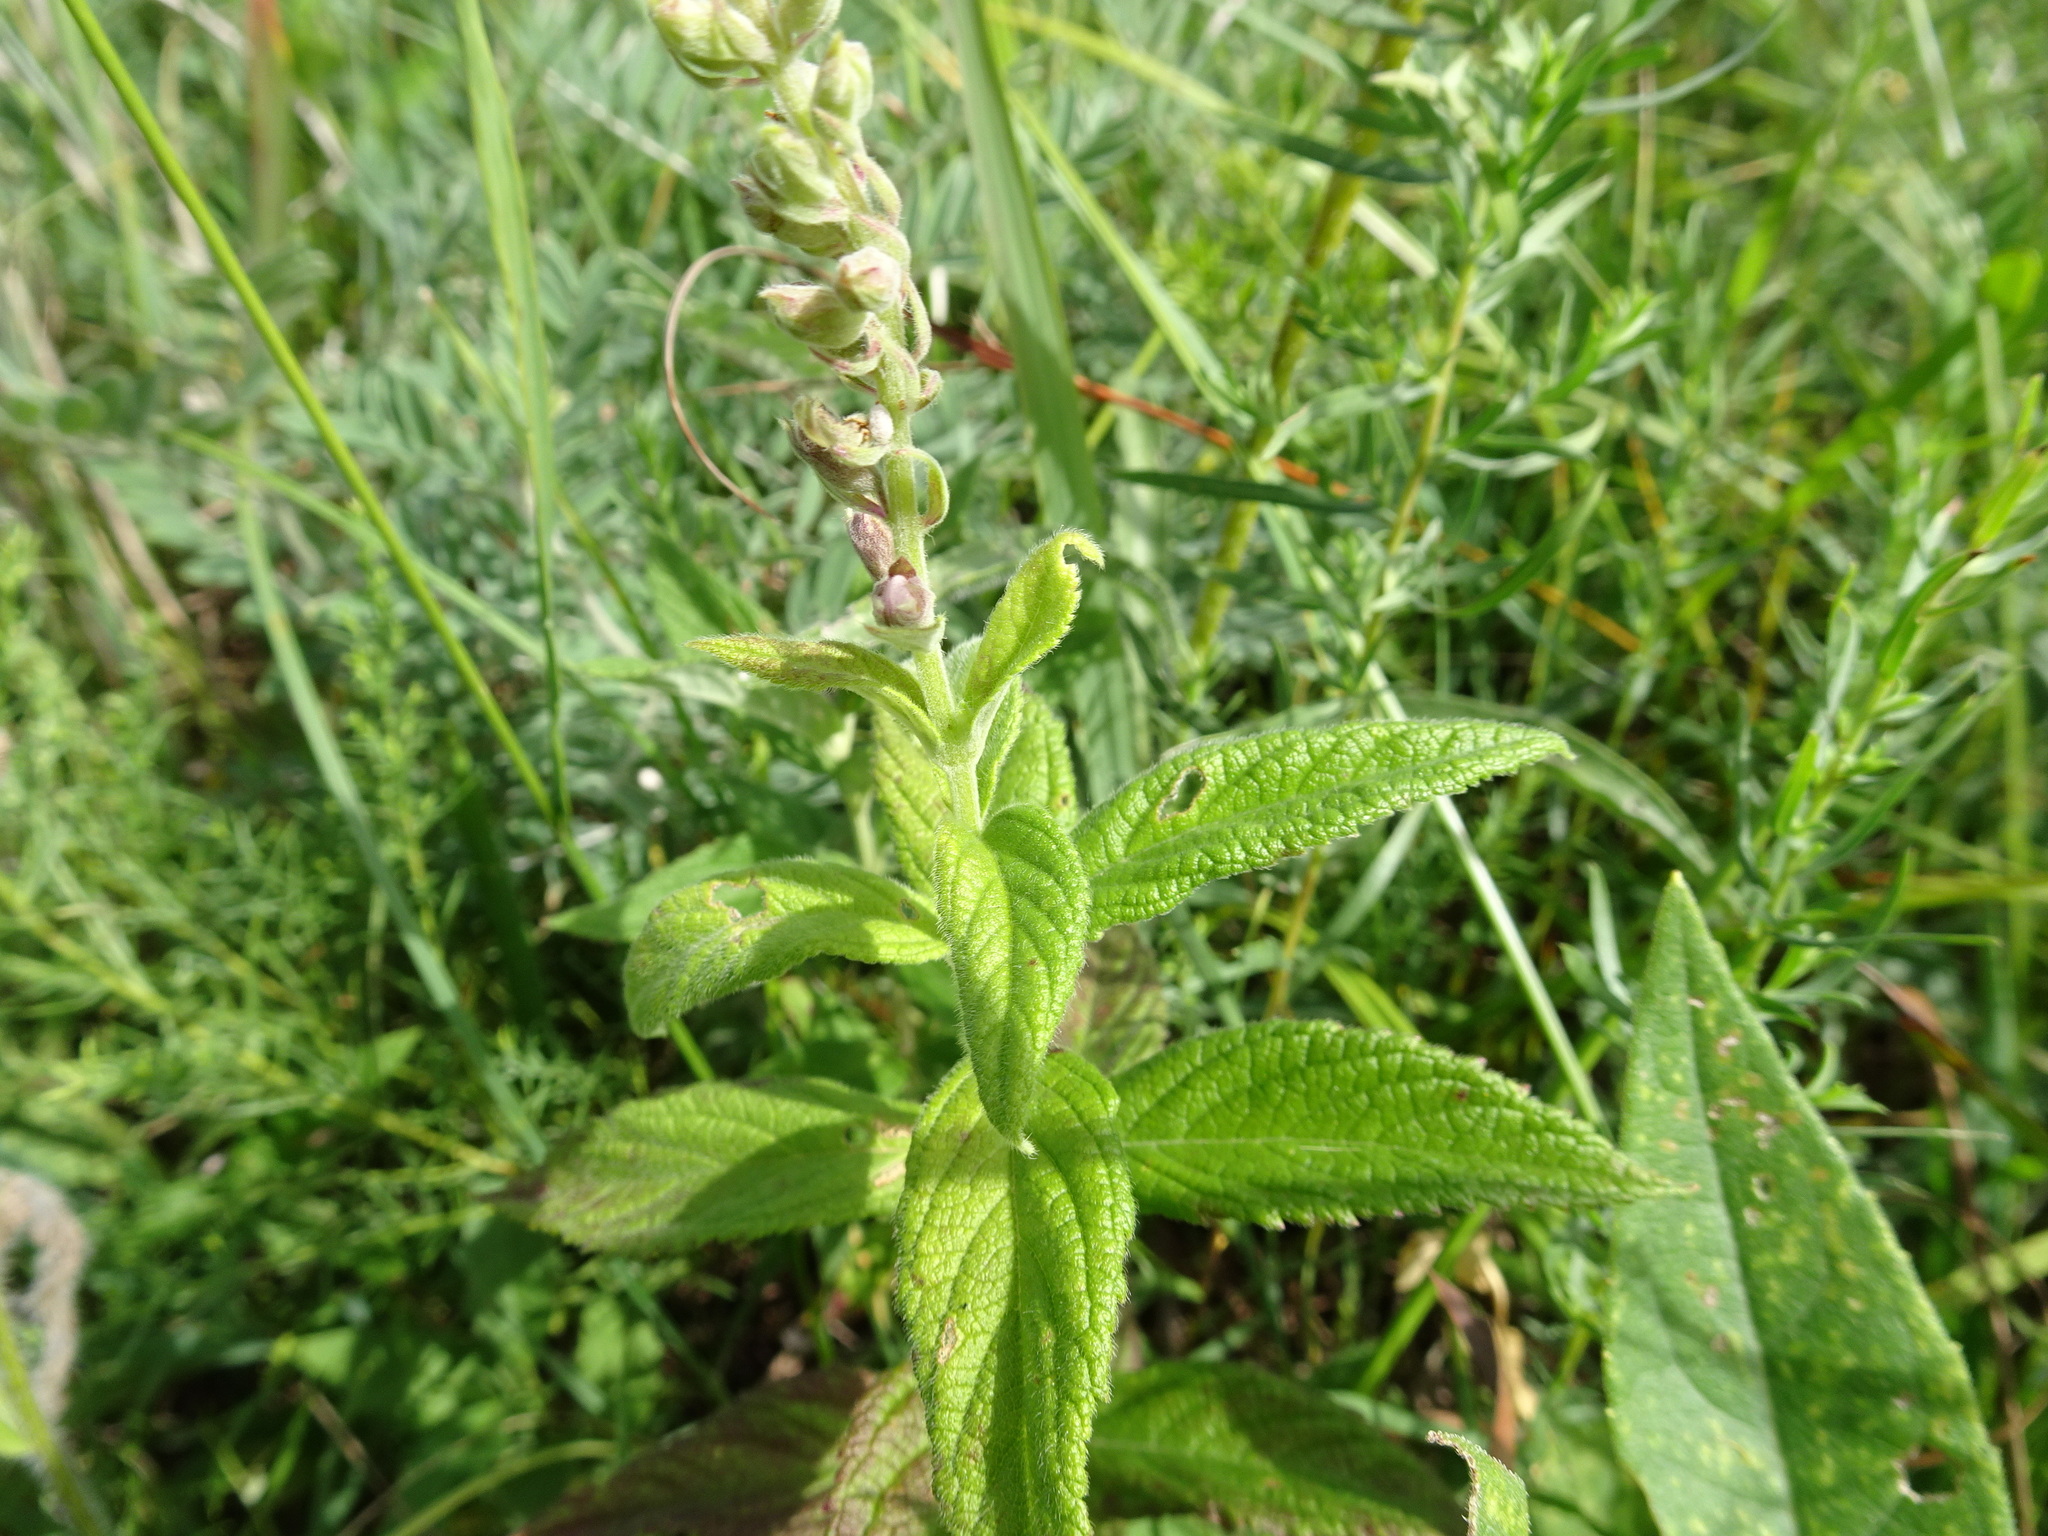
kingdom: Plantae
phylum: Tracheophyta
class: Magnoliopsida
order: Lamiales
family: Lamiaceae
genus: Teucrium
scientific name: Teucrium canadense
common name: American germander
